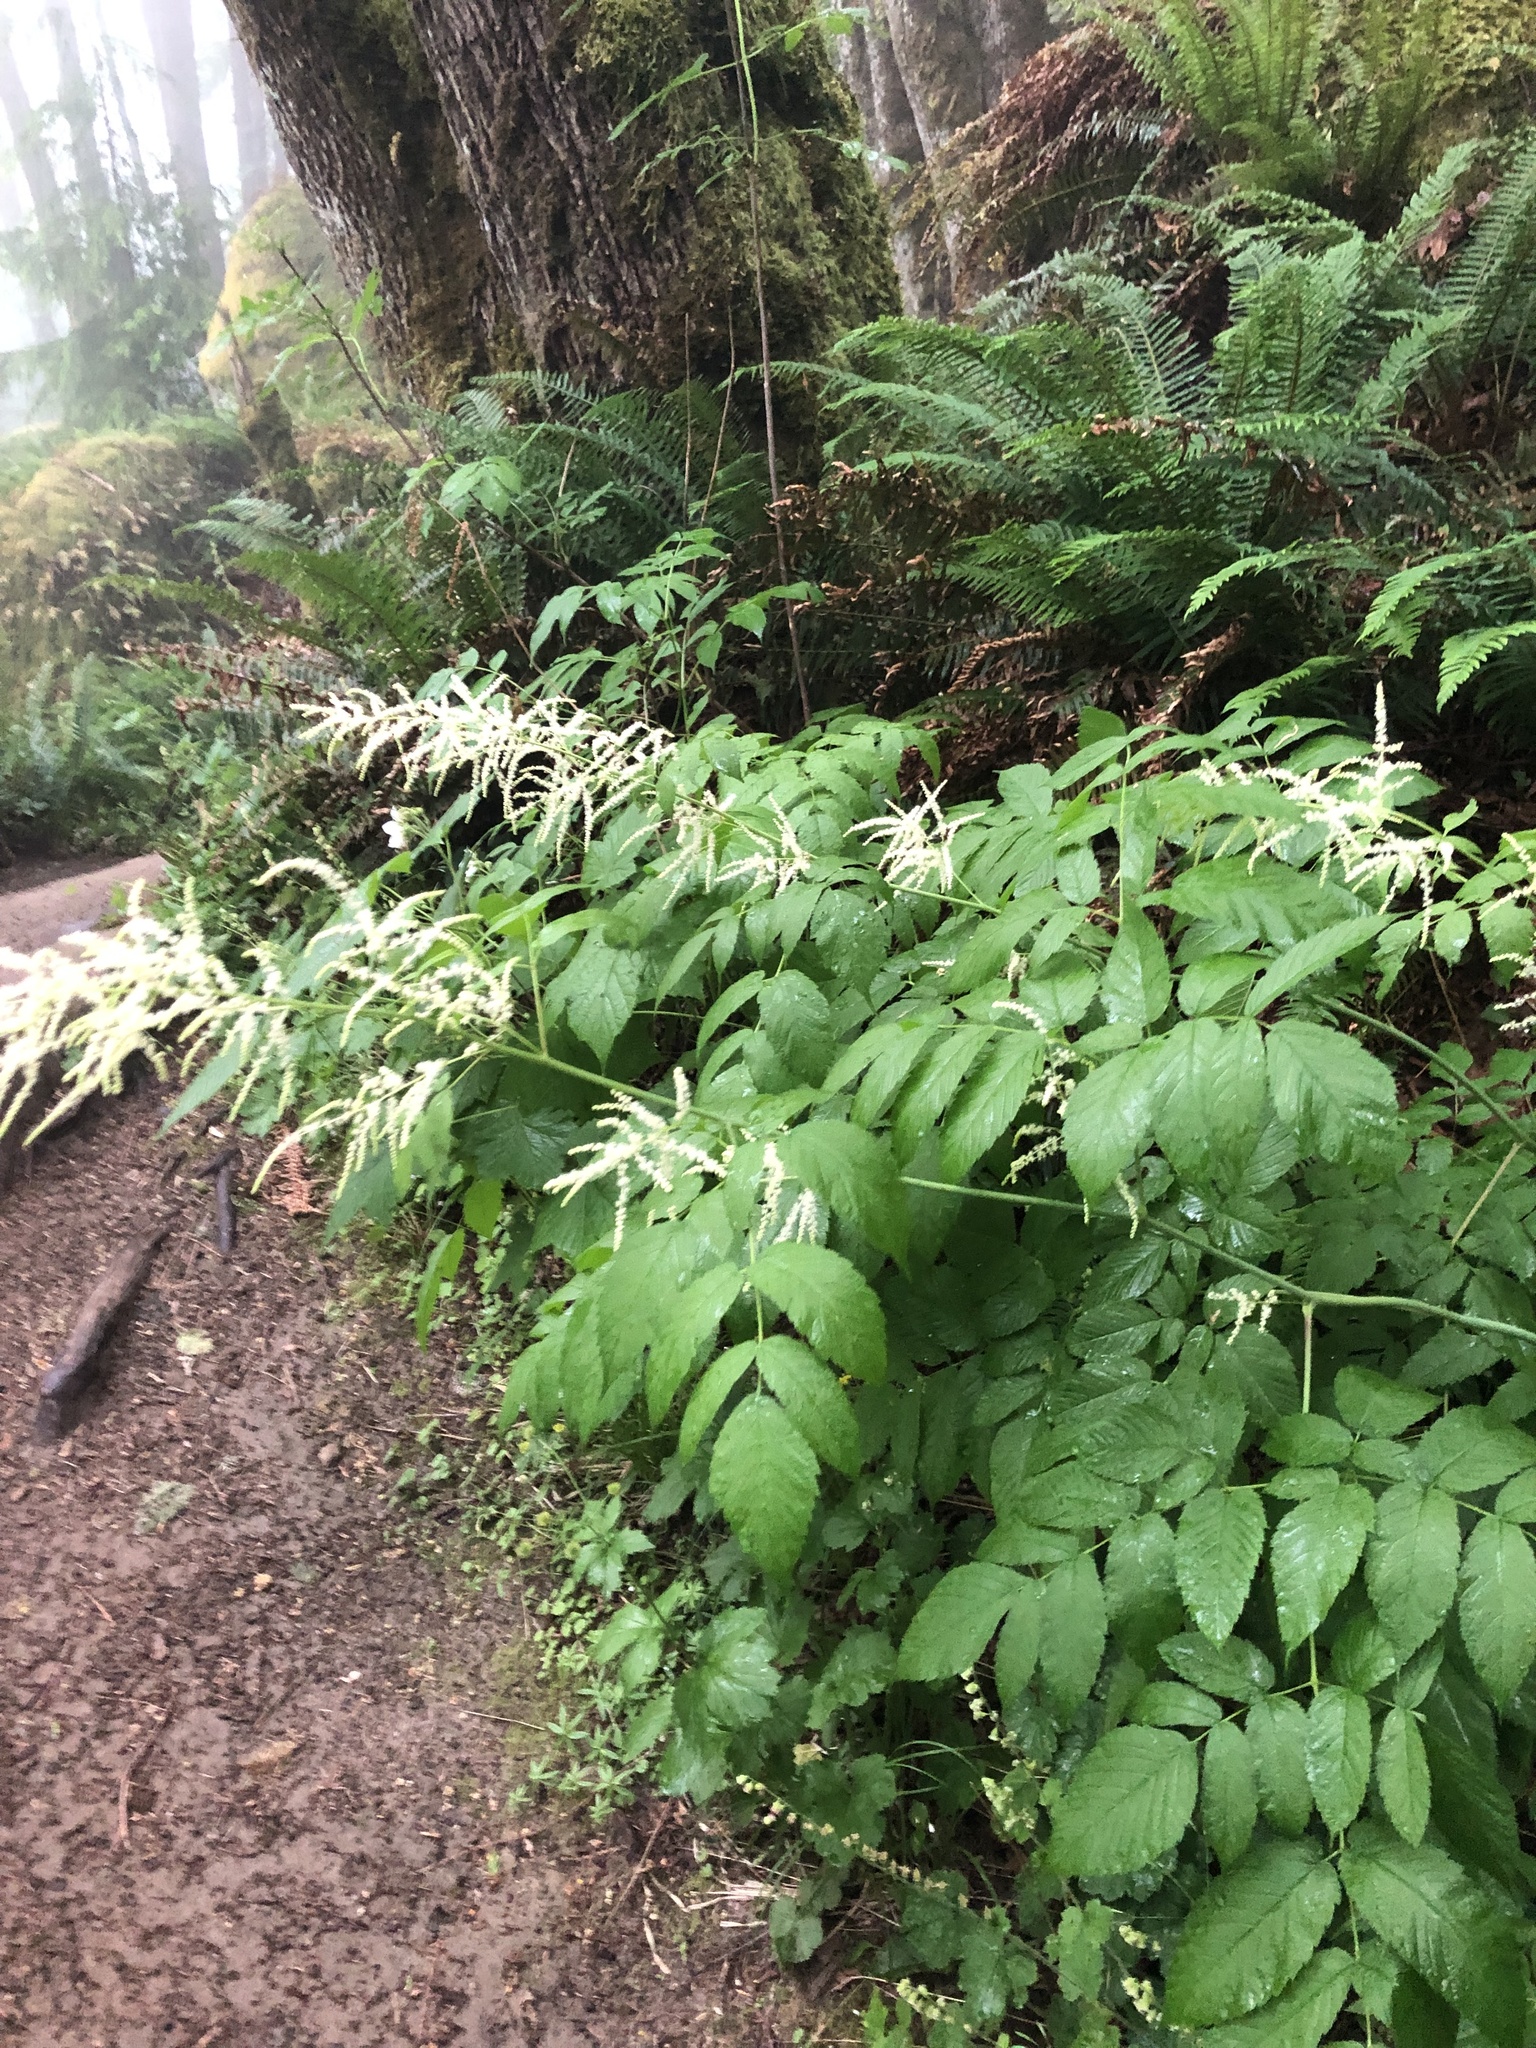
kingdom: Plantae
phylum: Tracheophyta
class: Magnoliopsida
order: Rosales
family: Rosaceae
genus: Aruncus
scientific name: Aruncus dioicus
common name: Buck's-beard
